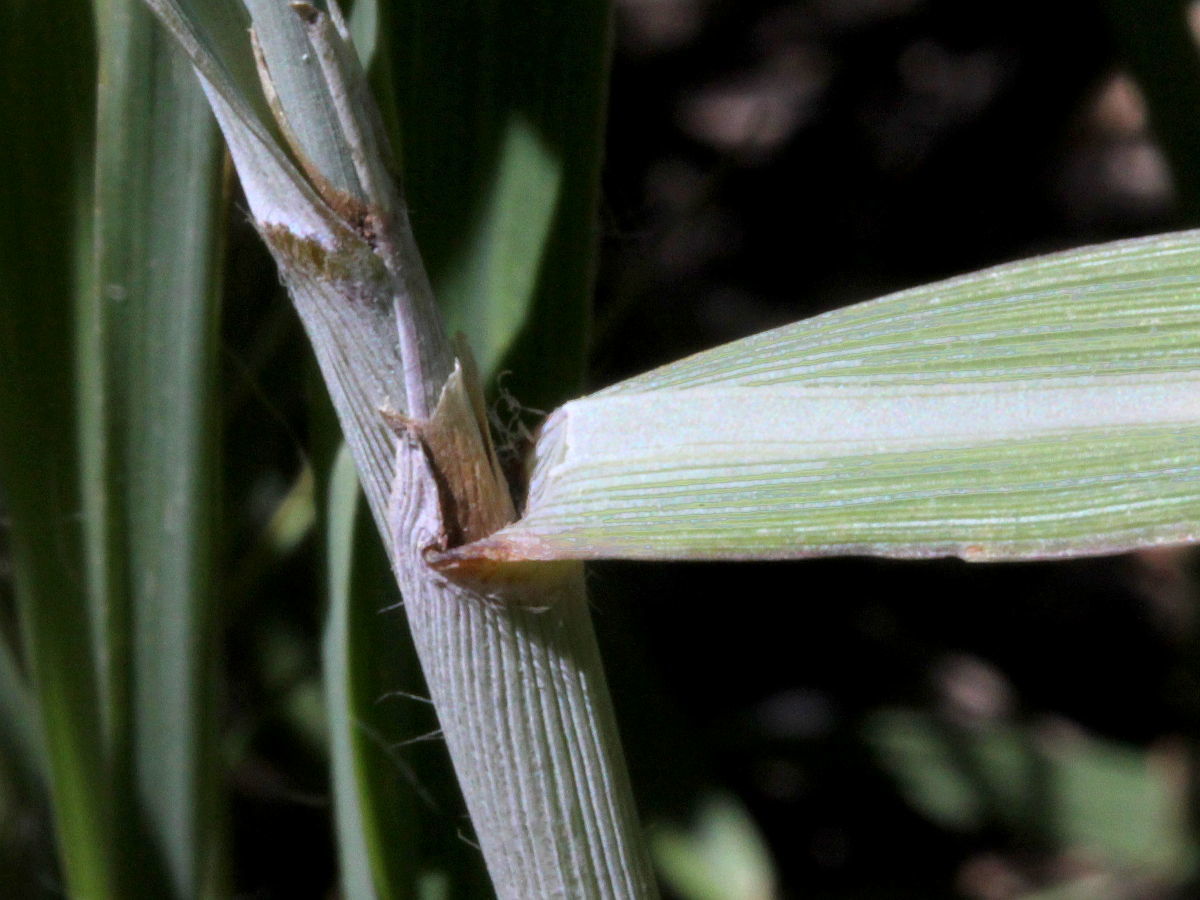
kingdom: Plantae
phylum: Tracheophyta
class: Liliopsida
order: Poales
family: Poaceae
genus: Sorghastrum
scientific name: Sorghastrum nutans
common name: Indian grass
